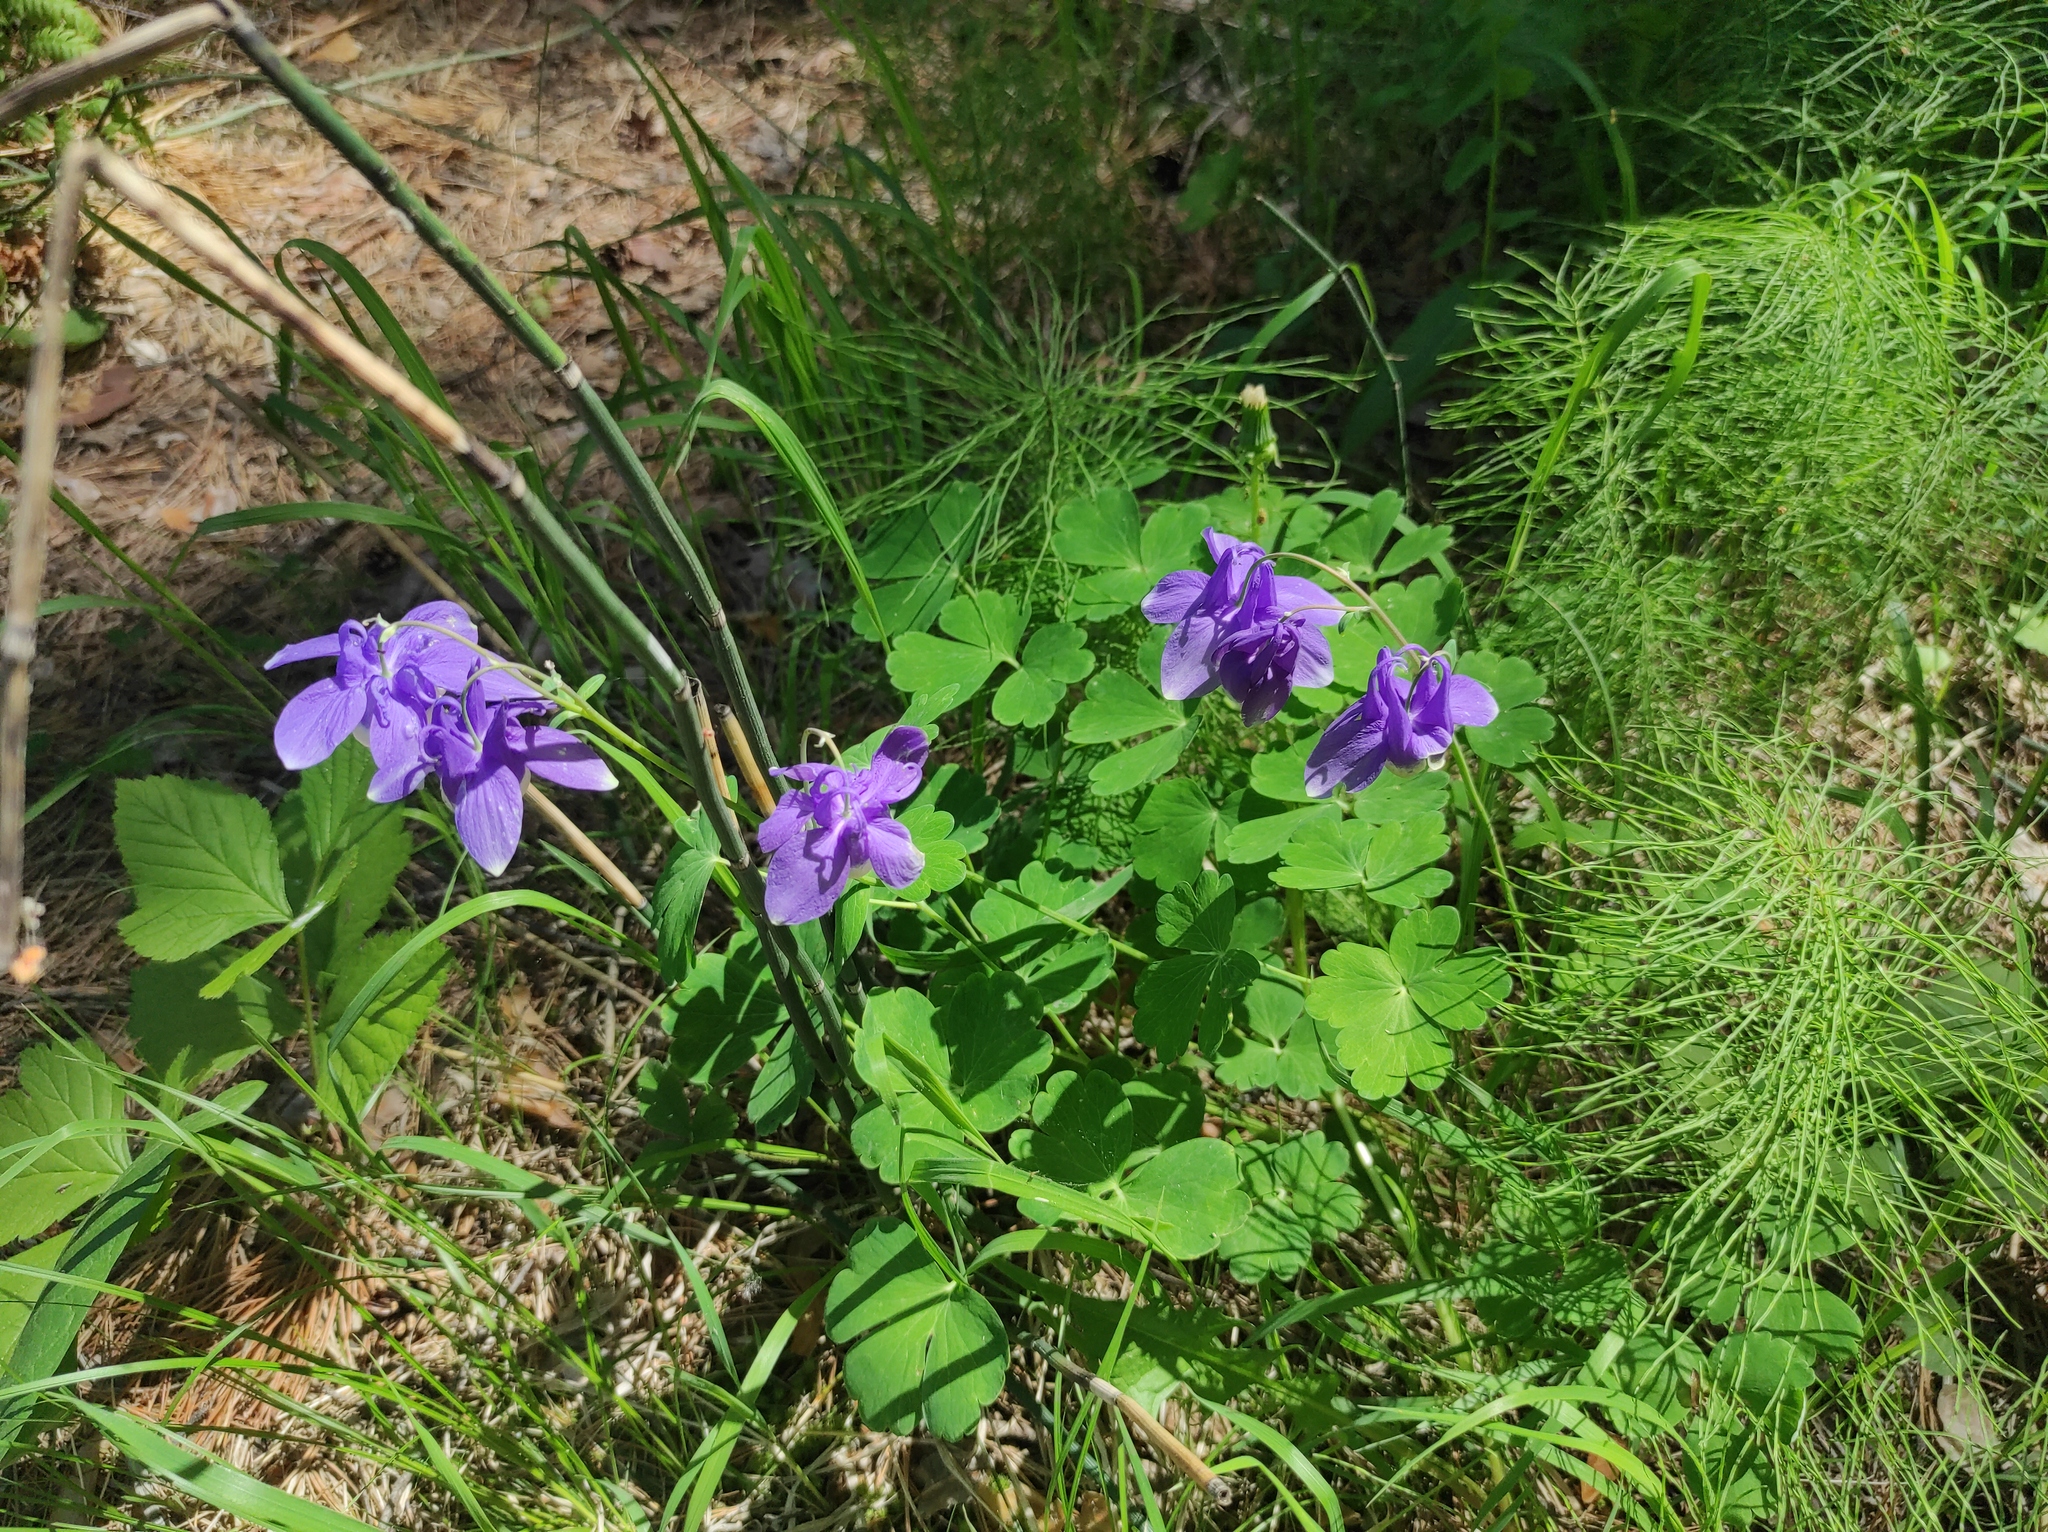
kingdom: Plantae
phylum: Tracheophyta
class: Magnoliopsida
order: Ranunculales
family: Ranunculaceae
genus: Aquilegia
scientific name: Aquilegia sibirica
